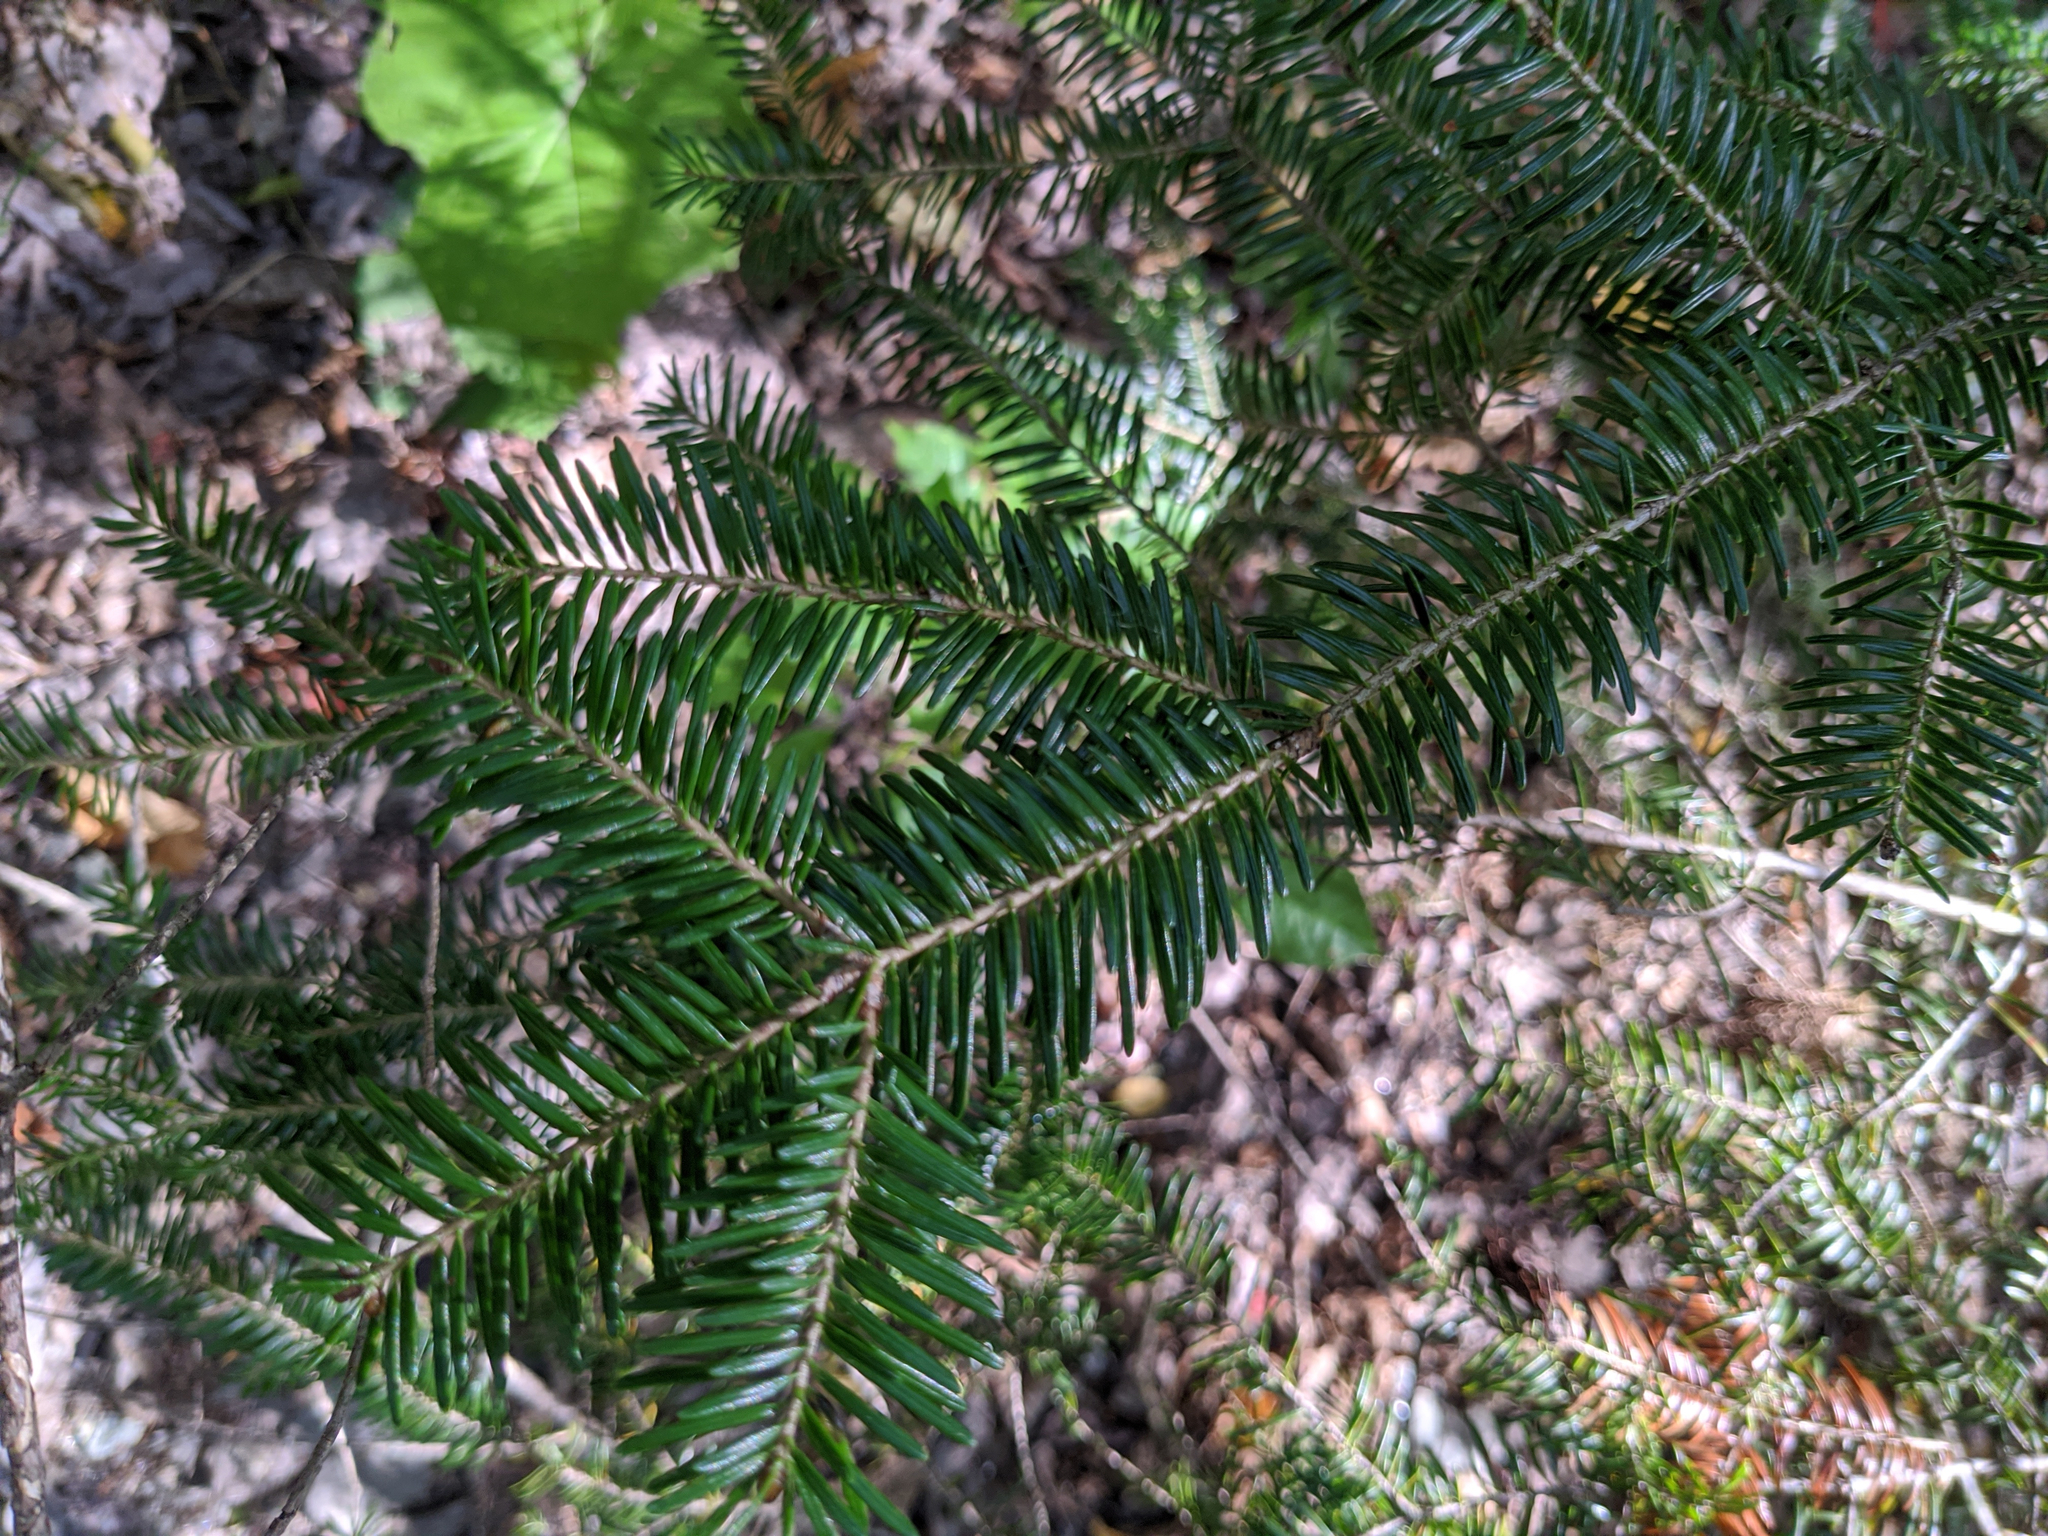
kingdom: Plantae
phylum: Tracheophyta
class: Pinopsida
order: Pinales
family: Pinaceae
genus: Abies
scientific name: Abies balsamea
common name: Balsam fir
